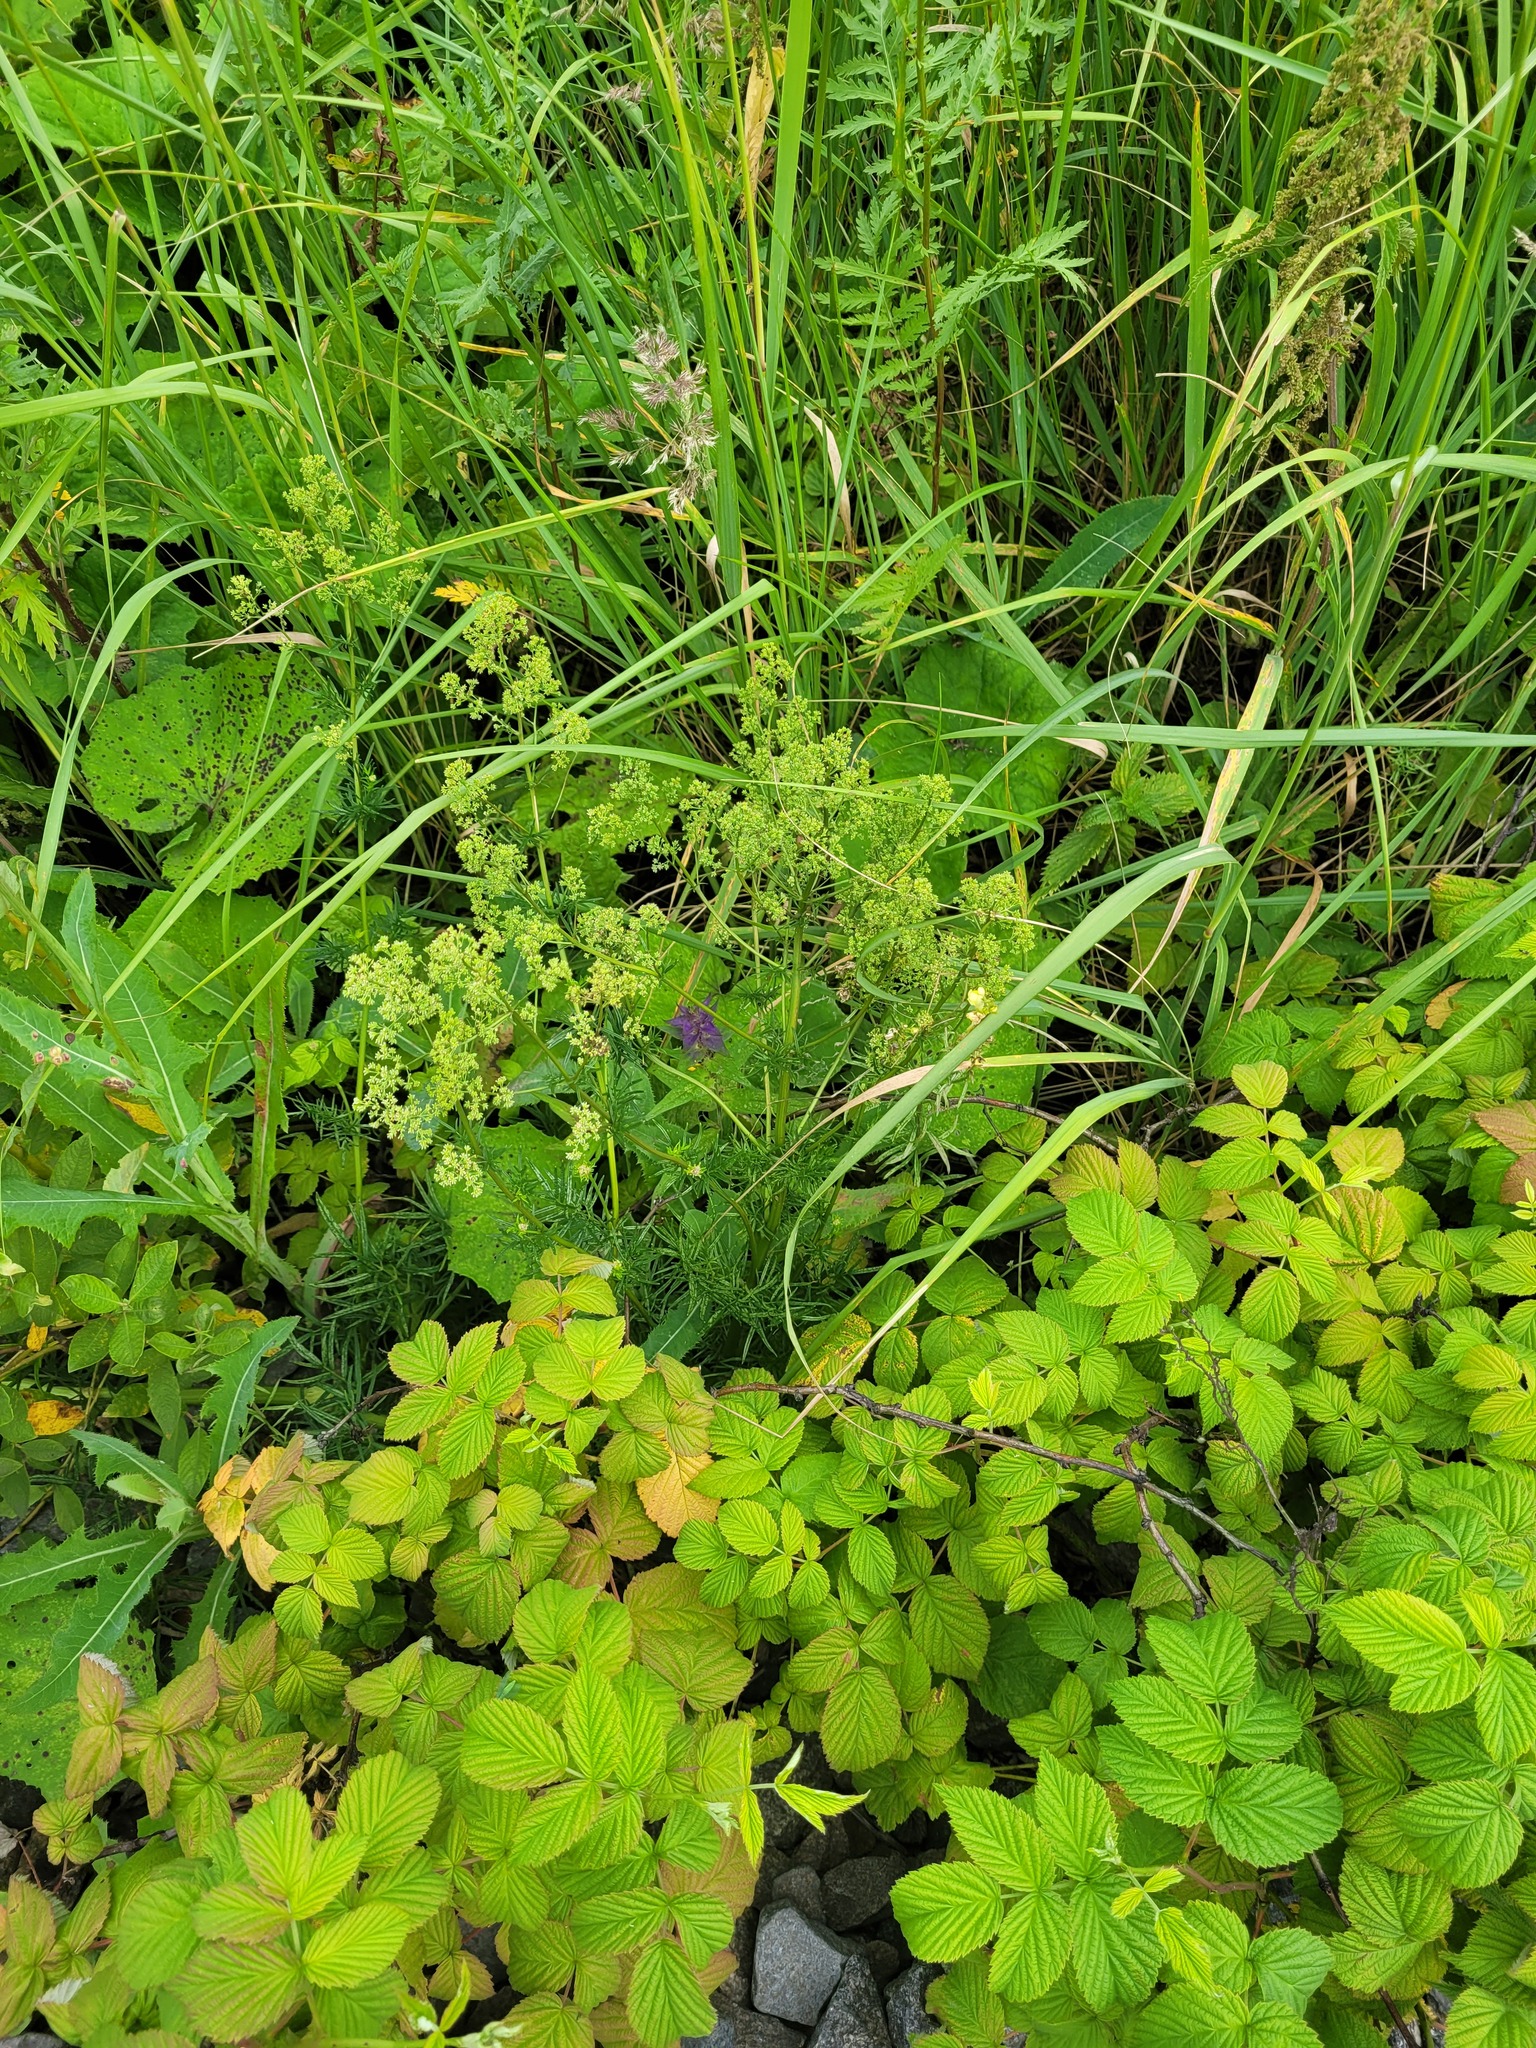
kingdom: Plantae
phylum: Tracheophyta
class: Magnoliopsida
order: Ranunculales
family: Ranunculaceae
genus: Thalictrum
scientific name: Thalictrum lucidum
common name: Shining meadow-rue
